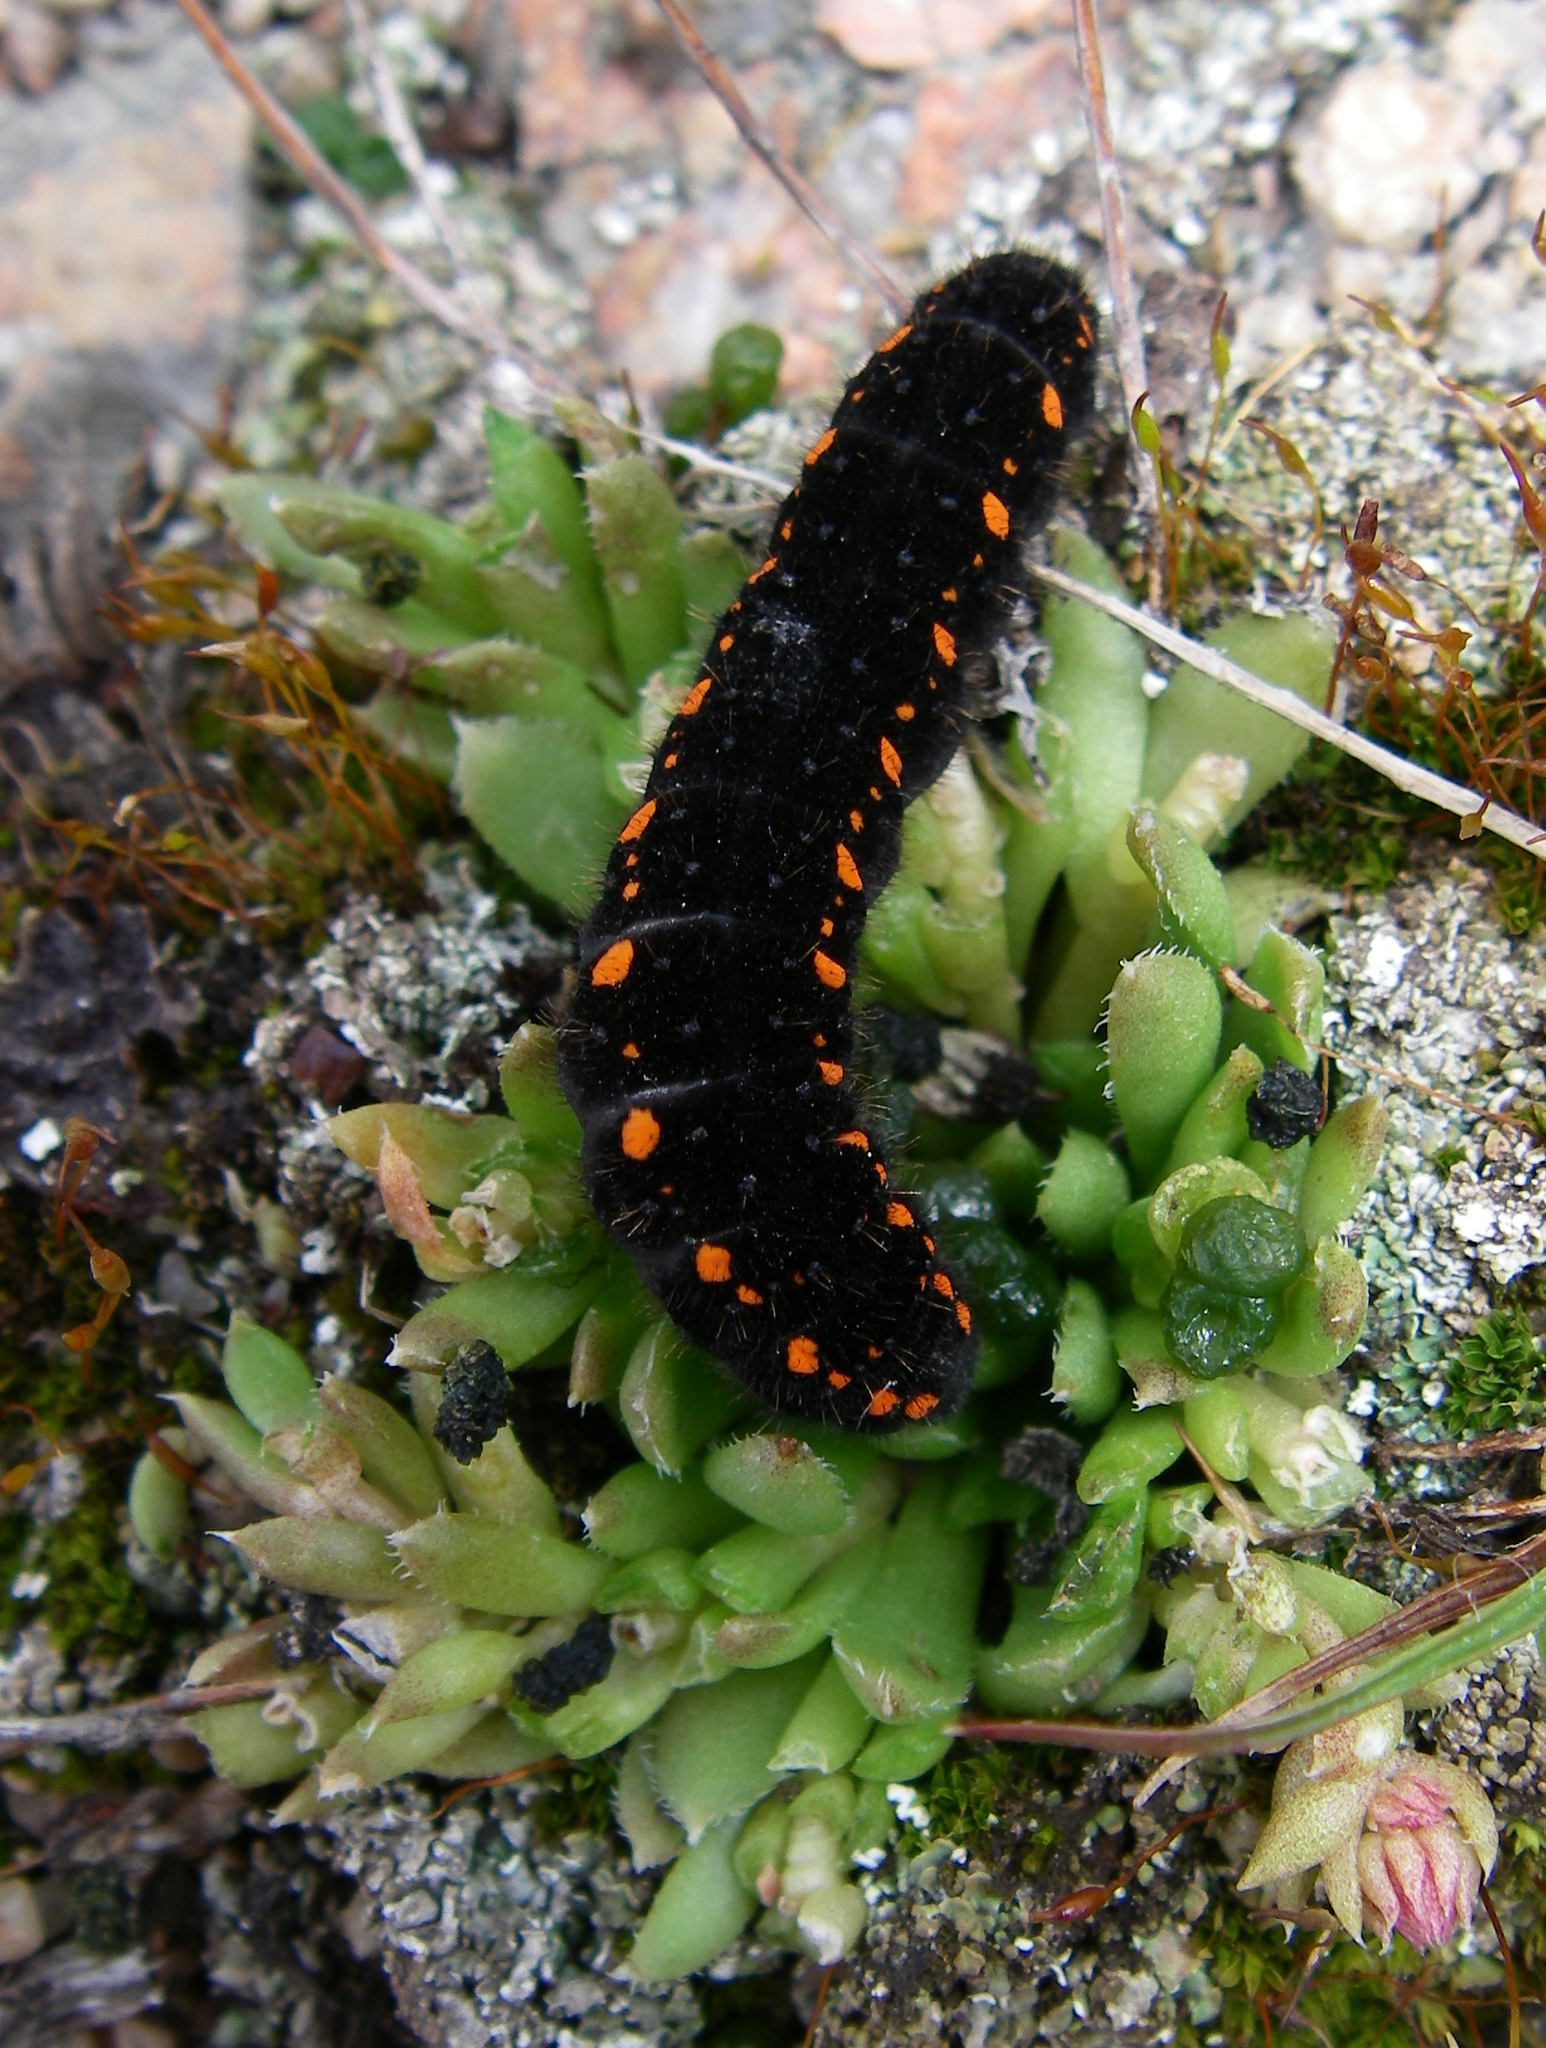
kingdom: Animalia
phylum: Arthropoda
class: Insecta
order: Lepidoptera
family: Papilionidae
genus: Parnassius
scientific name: Parnassius tianschanicus
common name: Large keeled apollo
